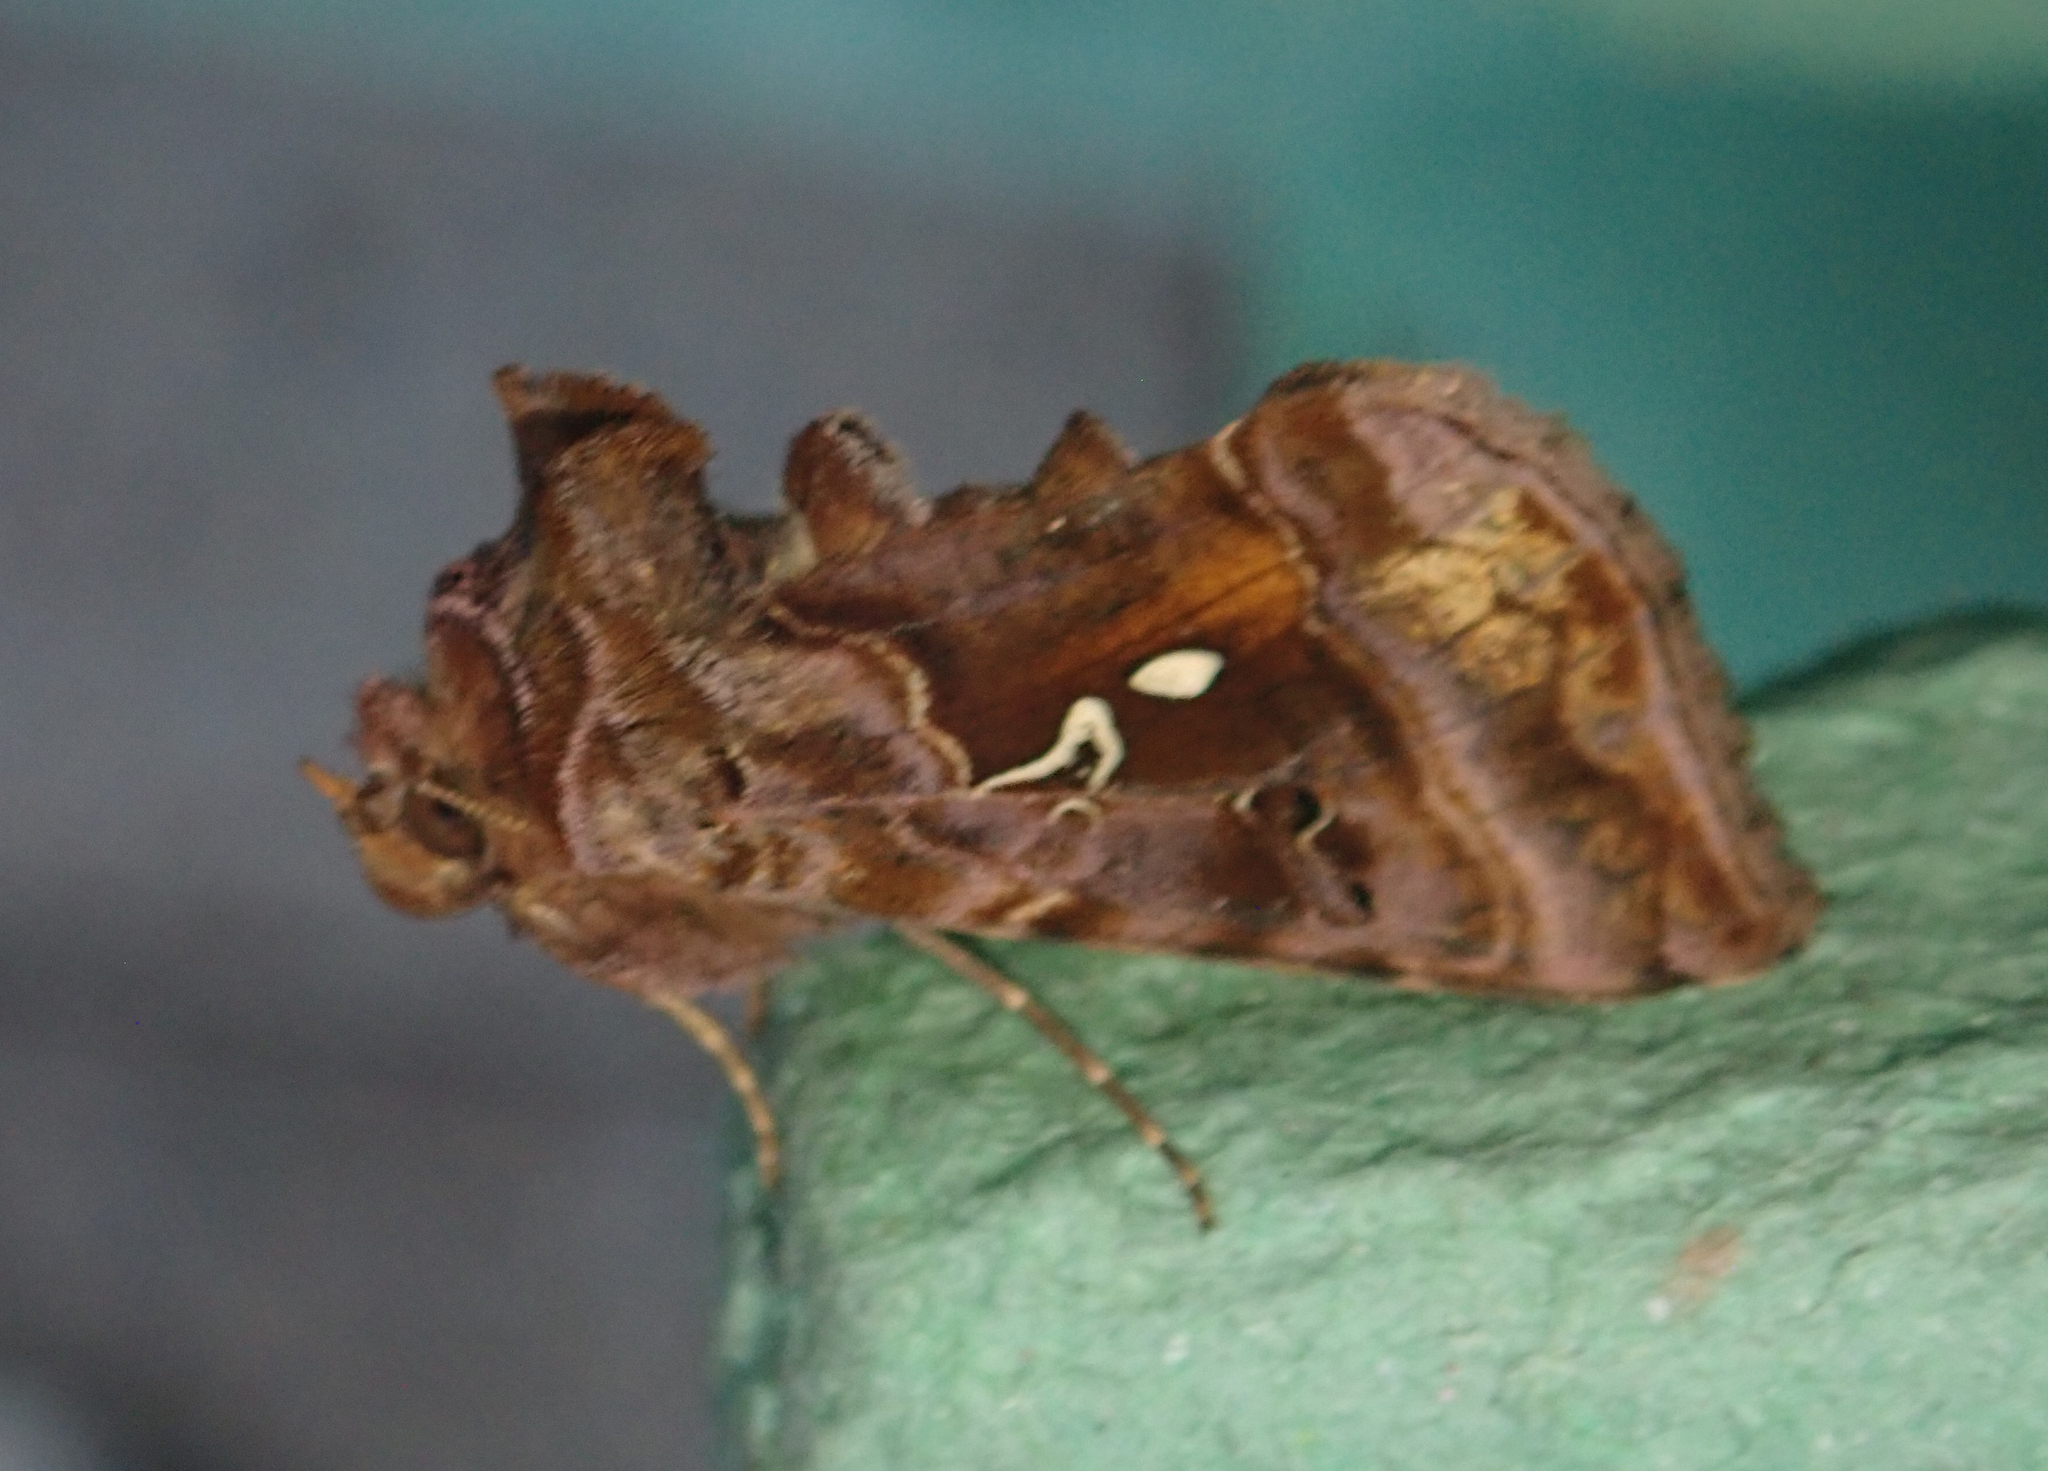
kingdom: Animalia
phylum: Arthropoda
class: Insecta
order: Lepidoptera
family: Noctuidae
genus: Autographa
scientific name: Autographa pulchrina
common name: Beautiful golden y
